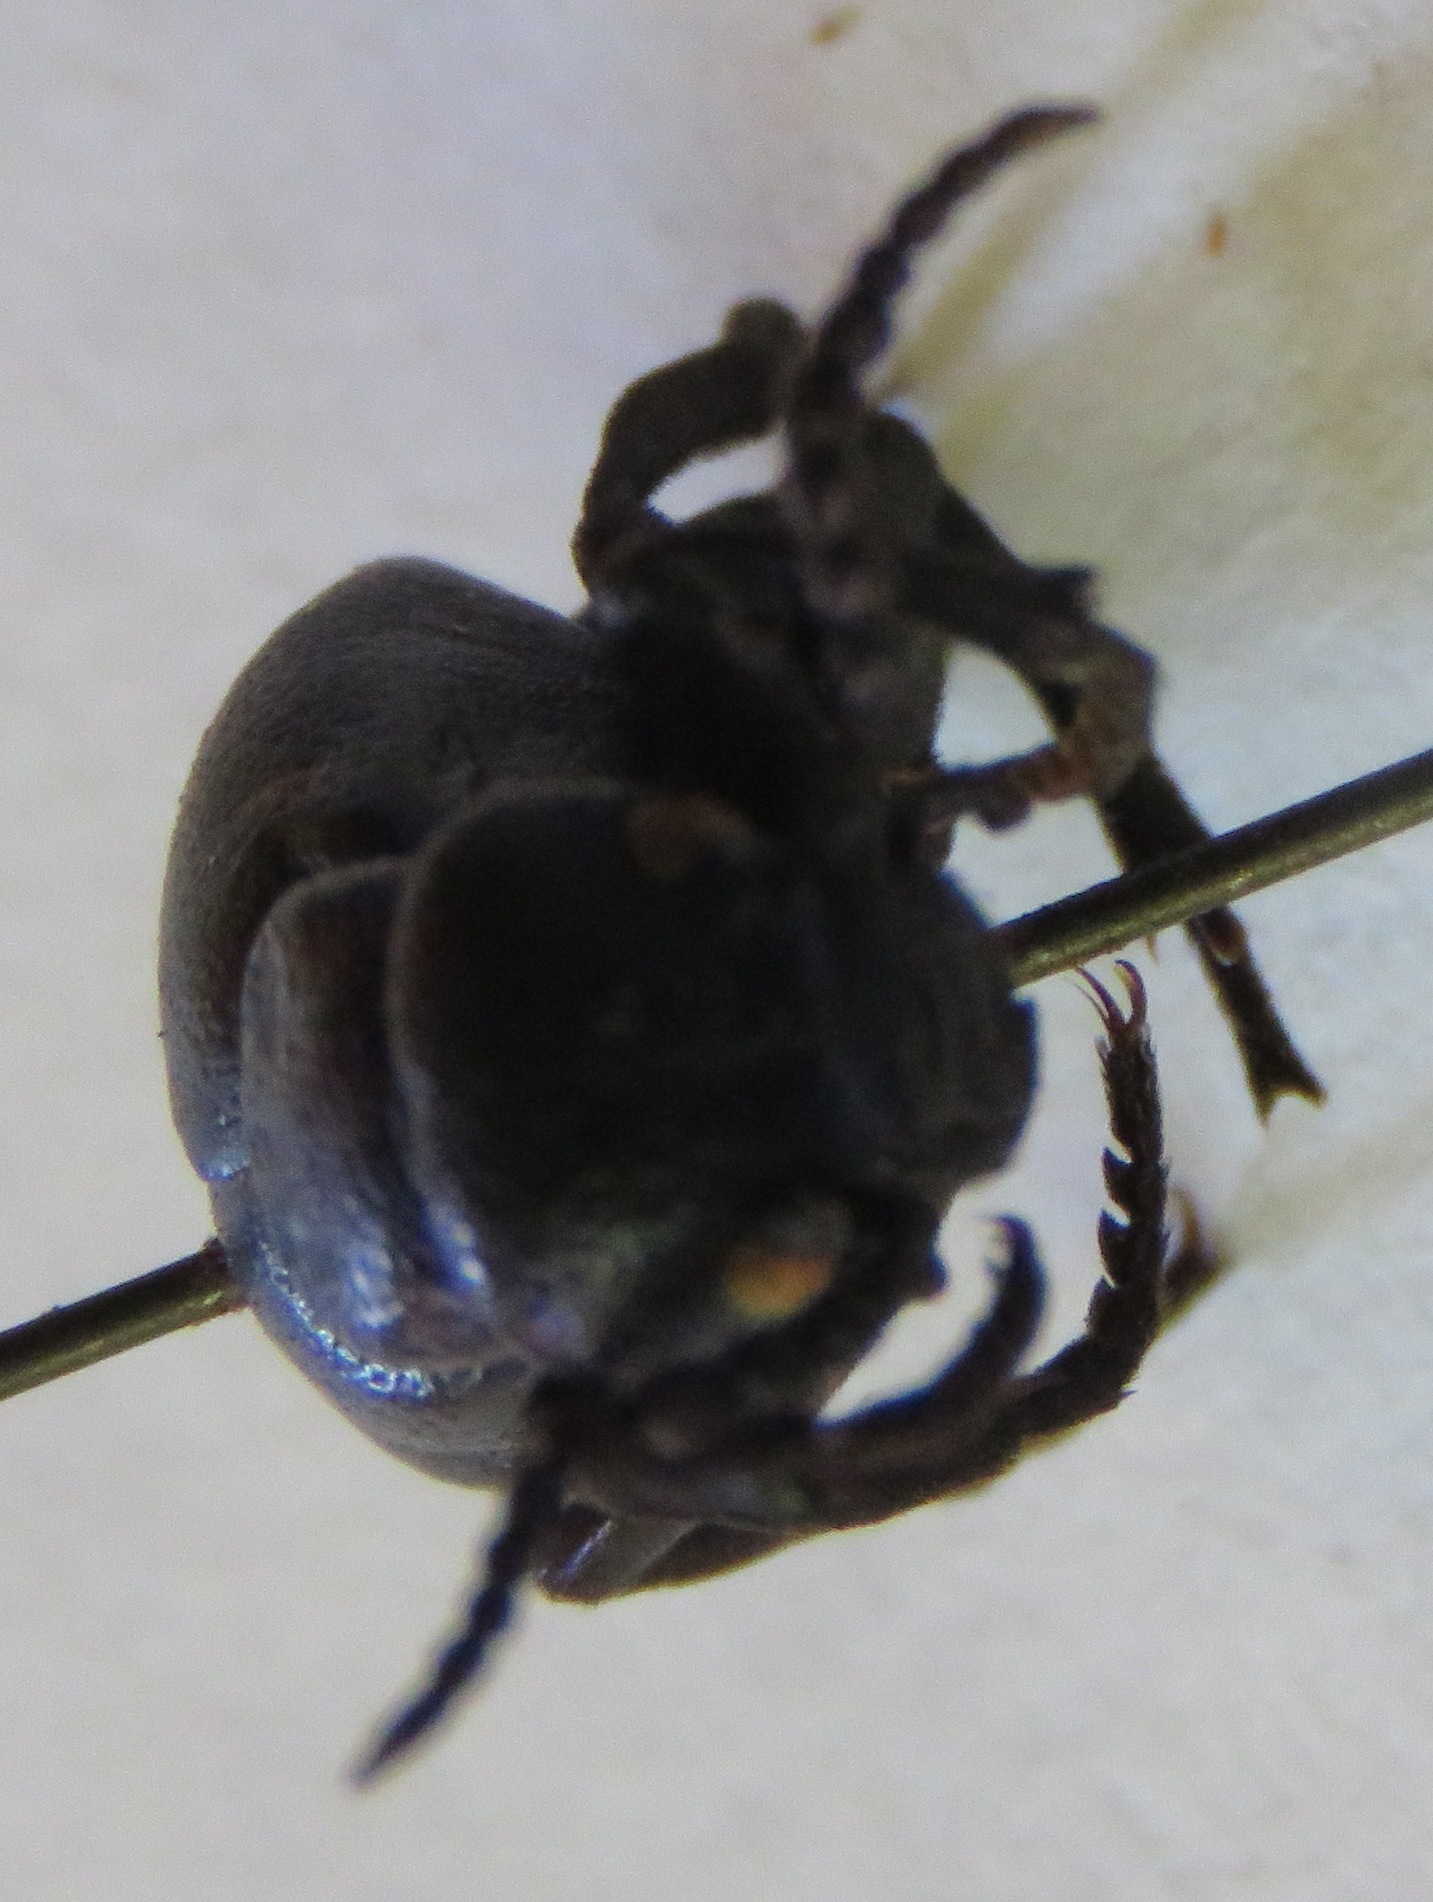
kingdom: Animalia
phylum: Arthropoda
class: Insecta
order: Coleoptera
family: Meloidae
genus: Meloe
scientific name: Meloe proscarabaeus
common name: Black oil-beetle
